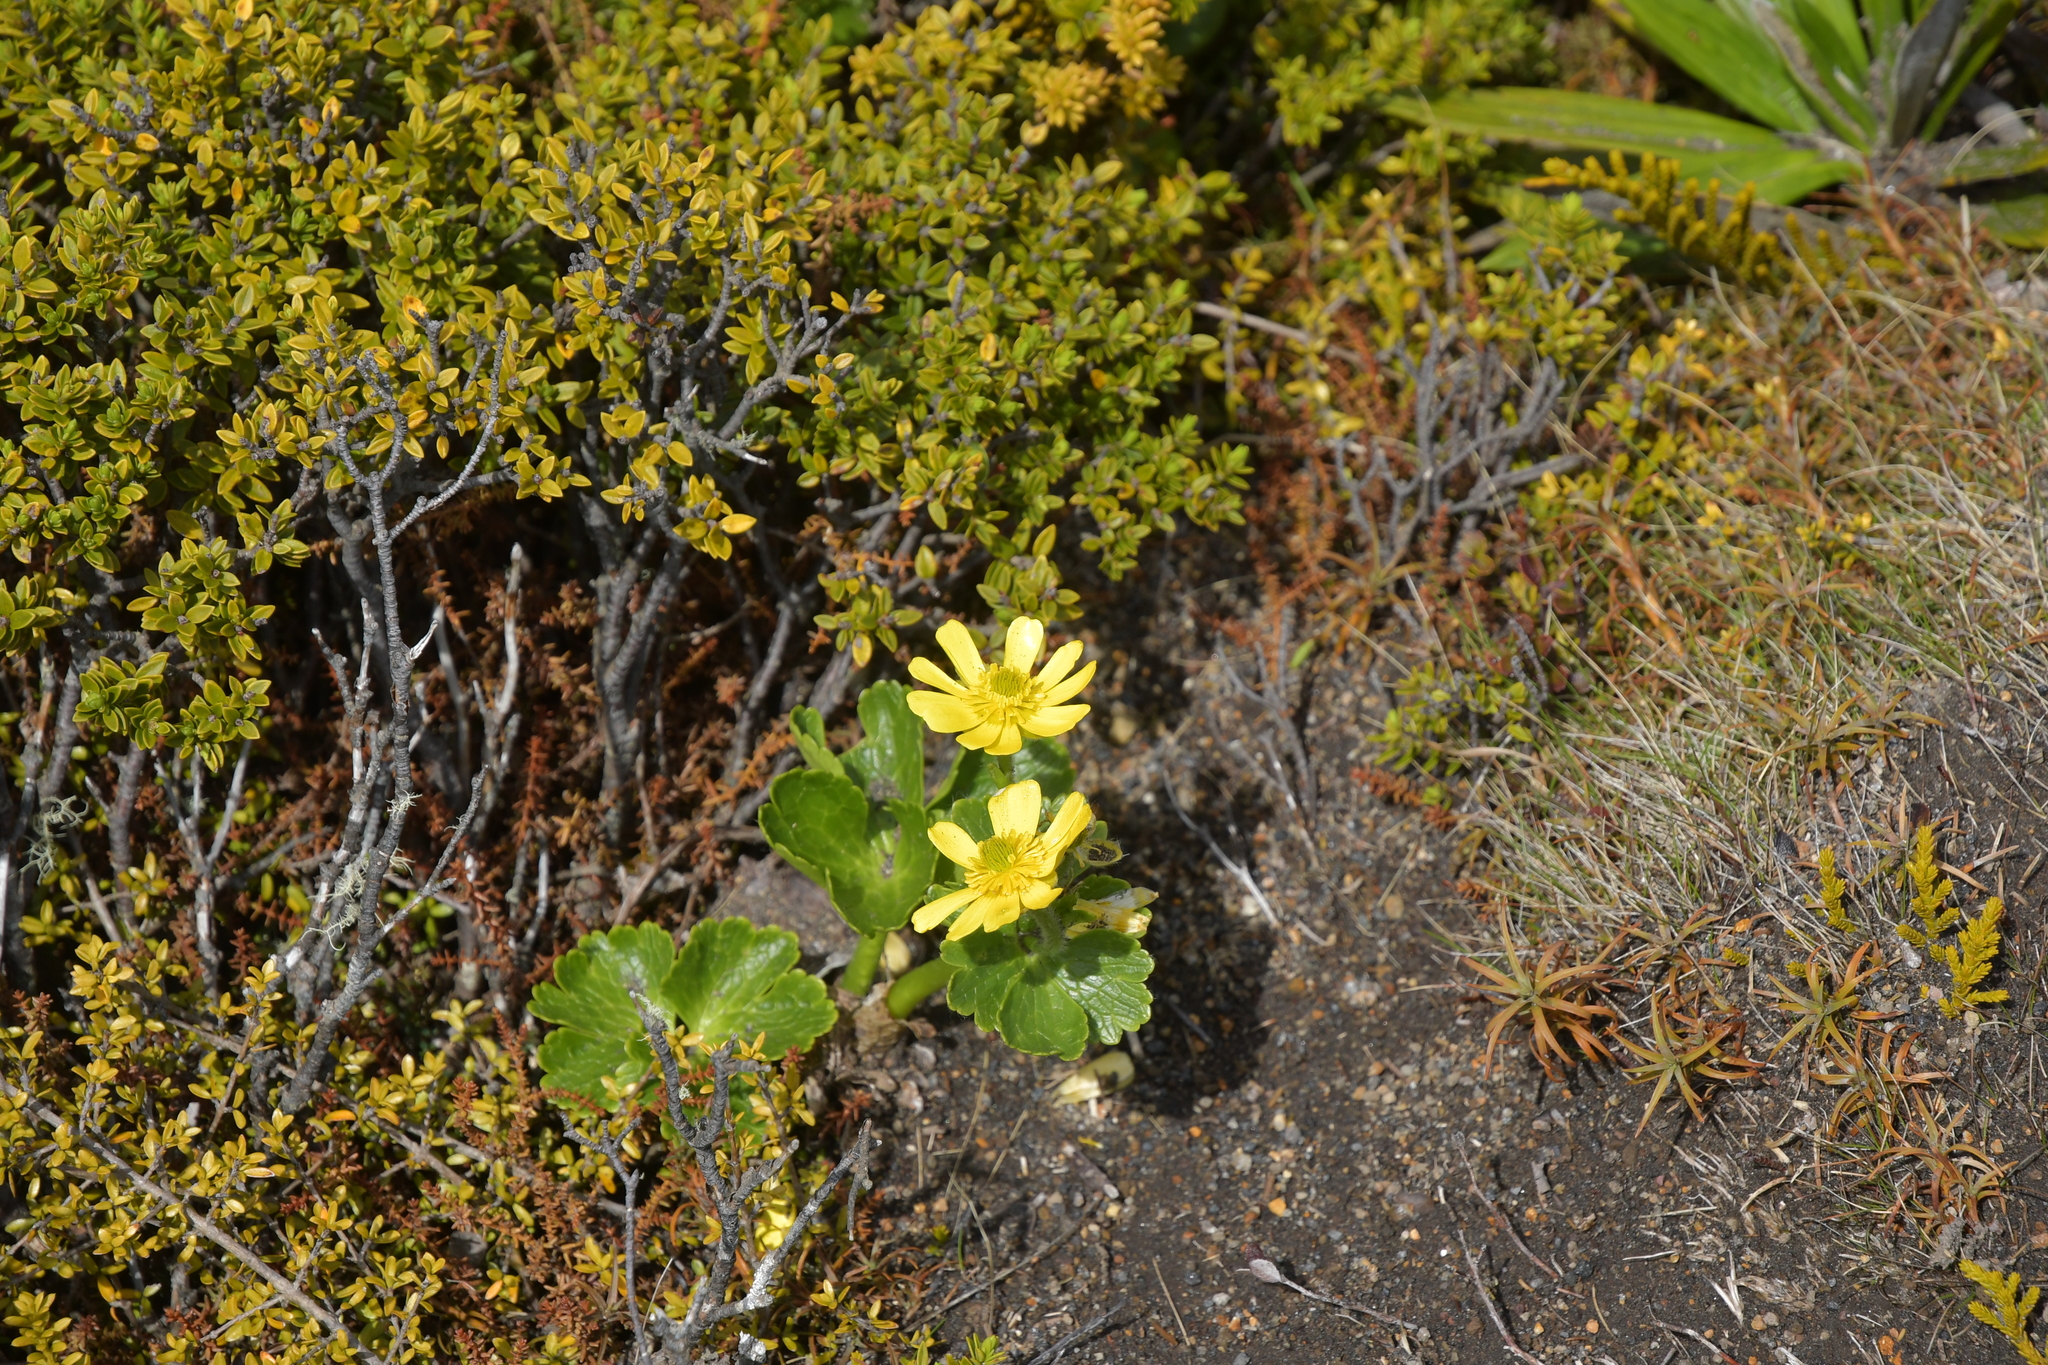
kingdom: Plantae
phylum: Tracheophyta
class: Magnoliopsida
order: Ranunculales
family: Ranunculaceae
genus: Ranunculus
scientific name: Ranunculus nivicola
